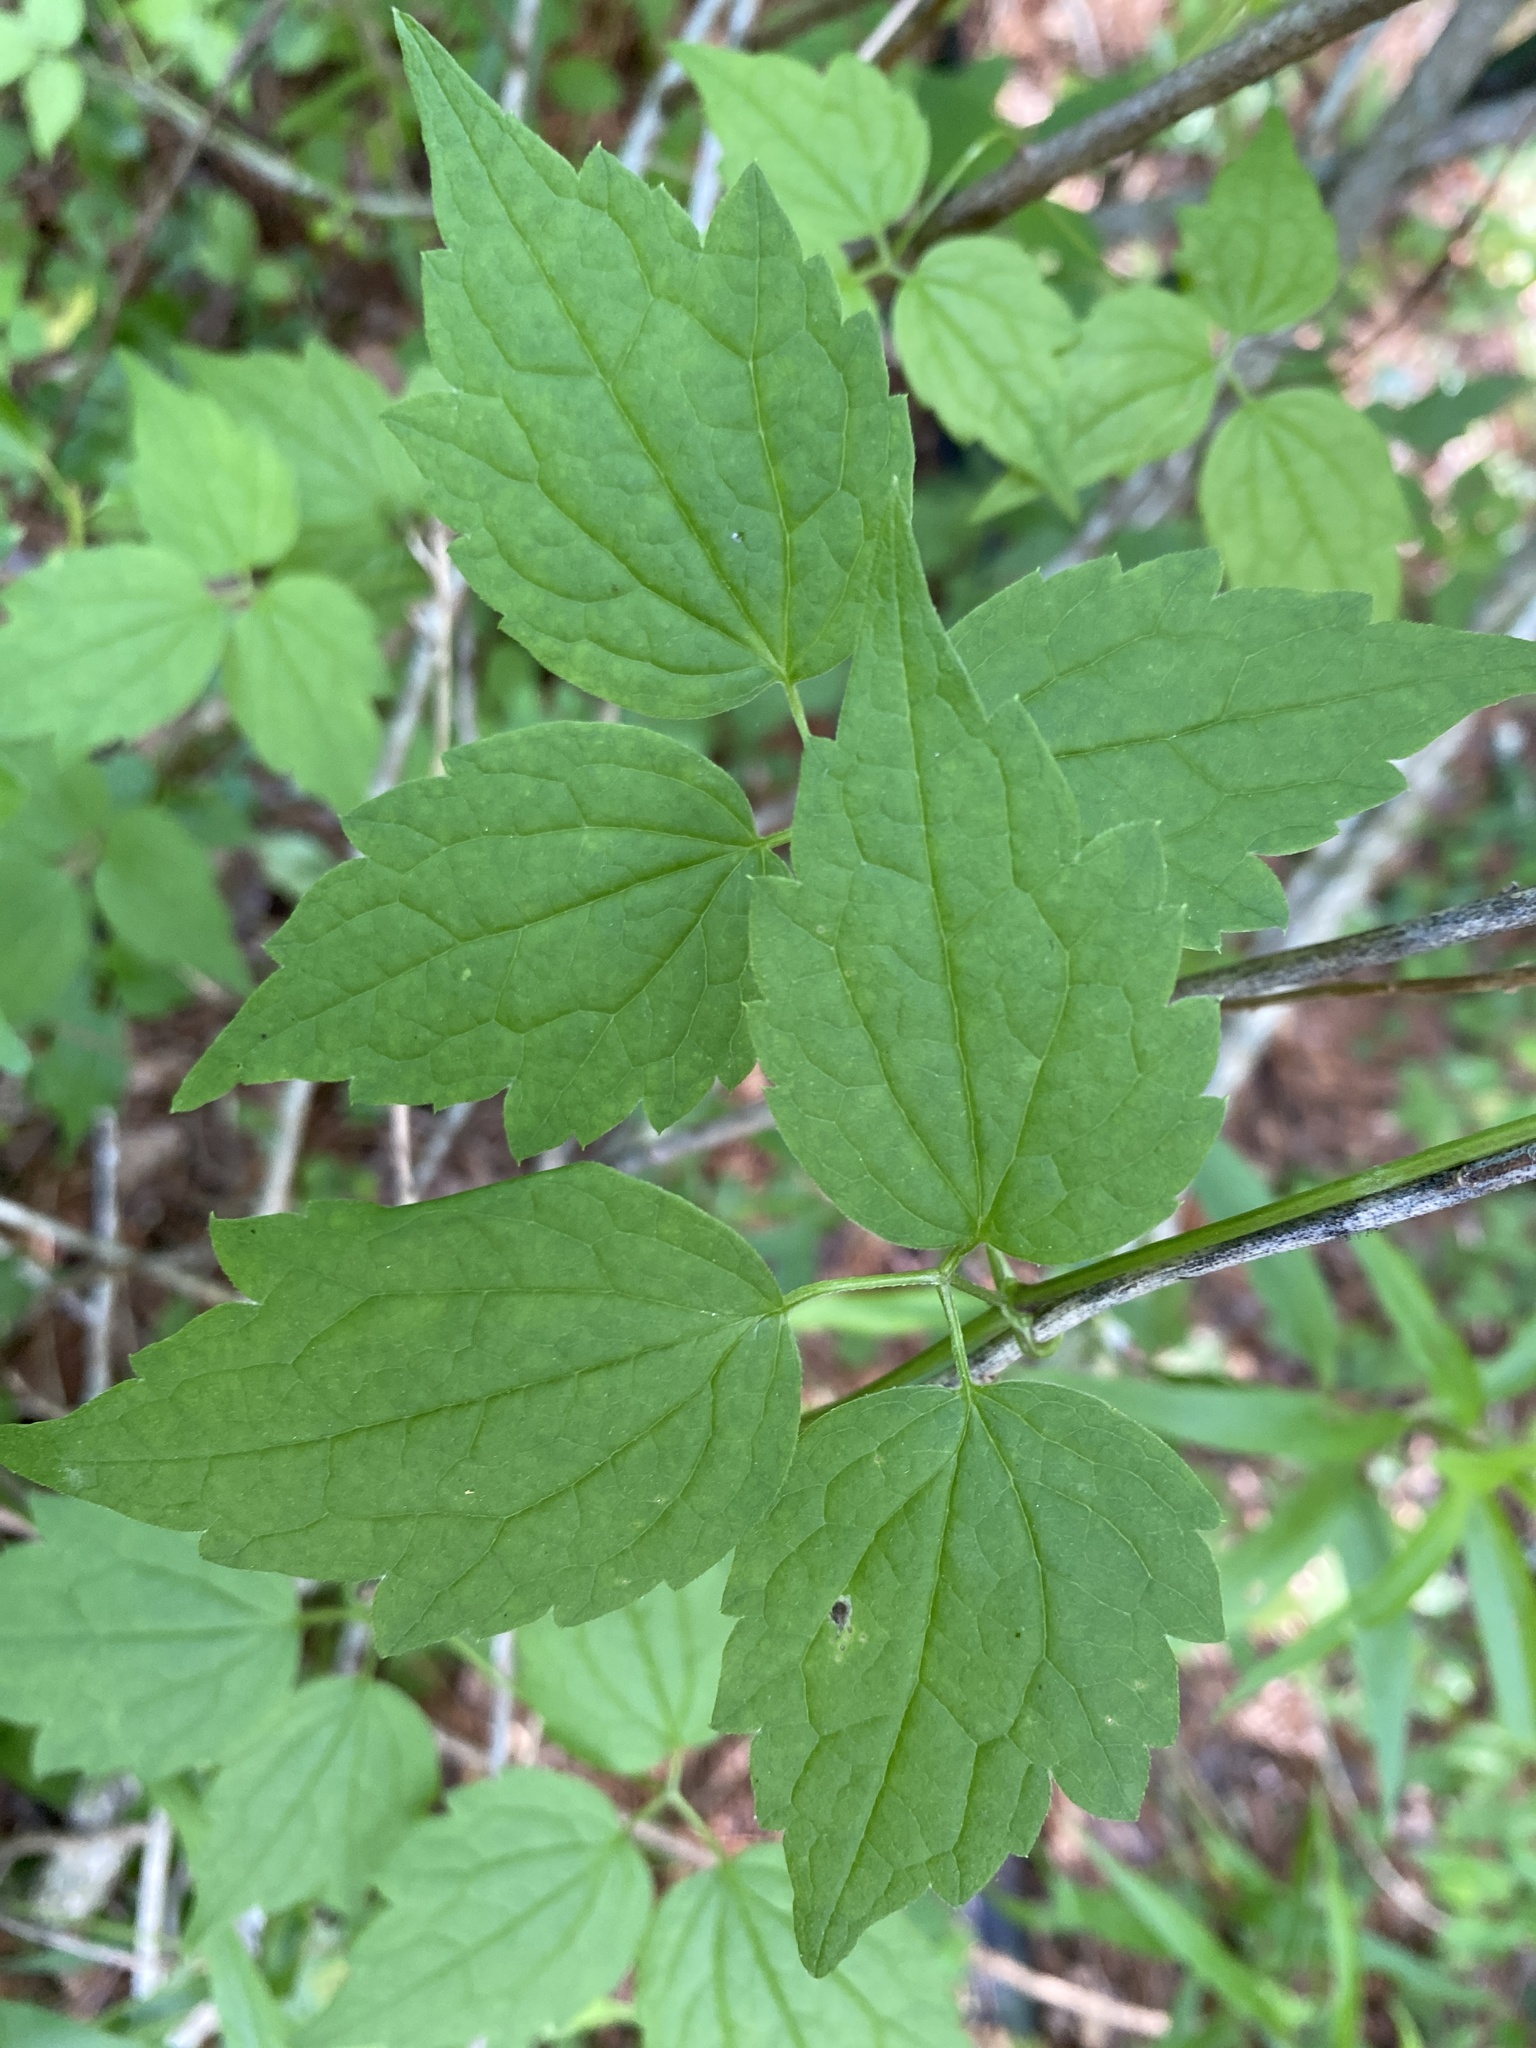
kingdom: Plantae
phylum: Tracheophyta
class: Magnoliopsida
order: Ranunculales
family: Ranunculaceae
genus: Clematis
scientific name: Clematis virginiana
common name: Virgin's-bower
